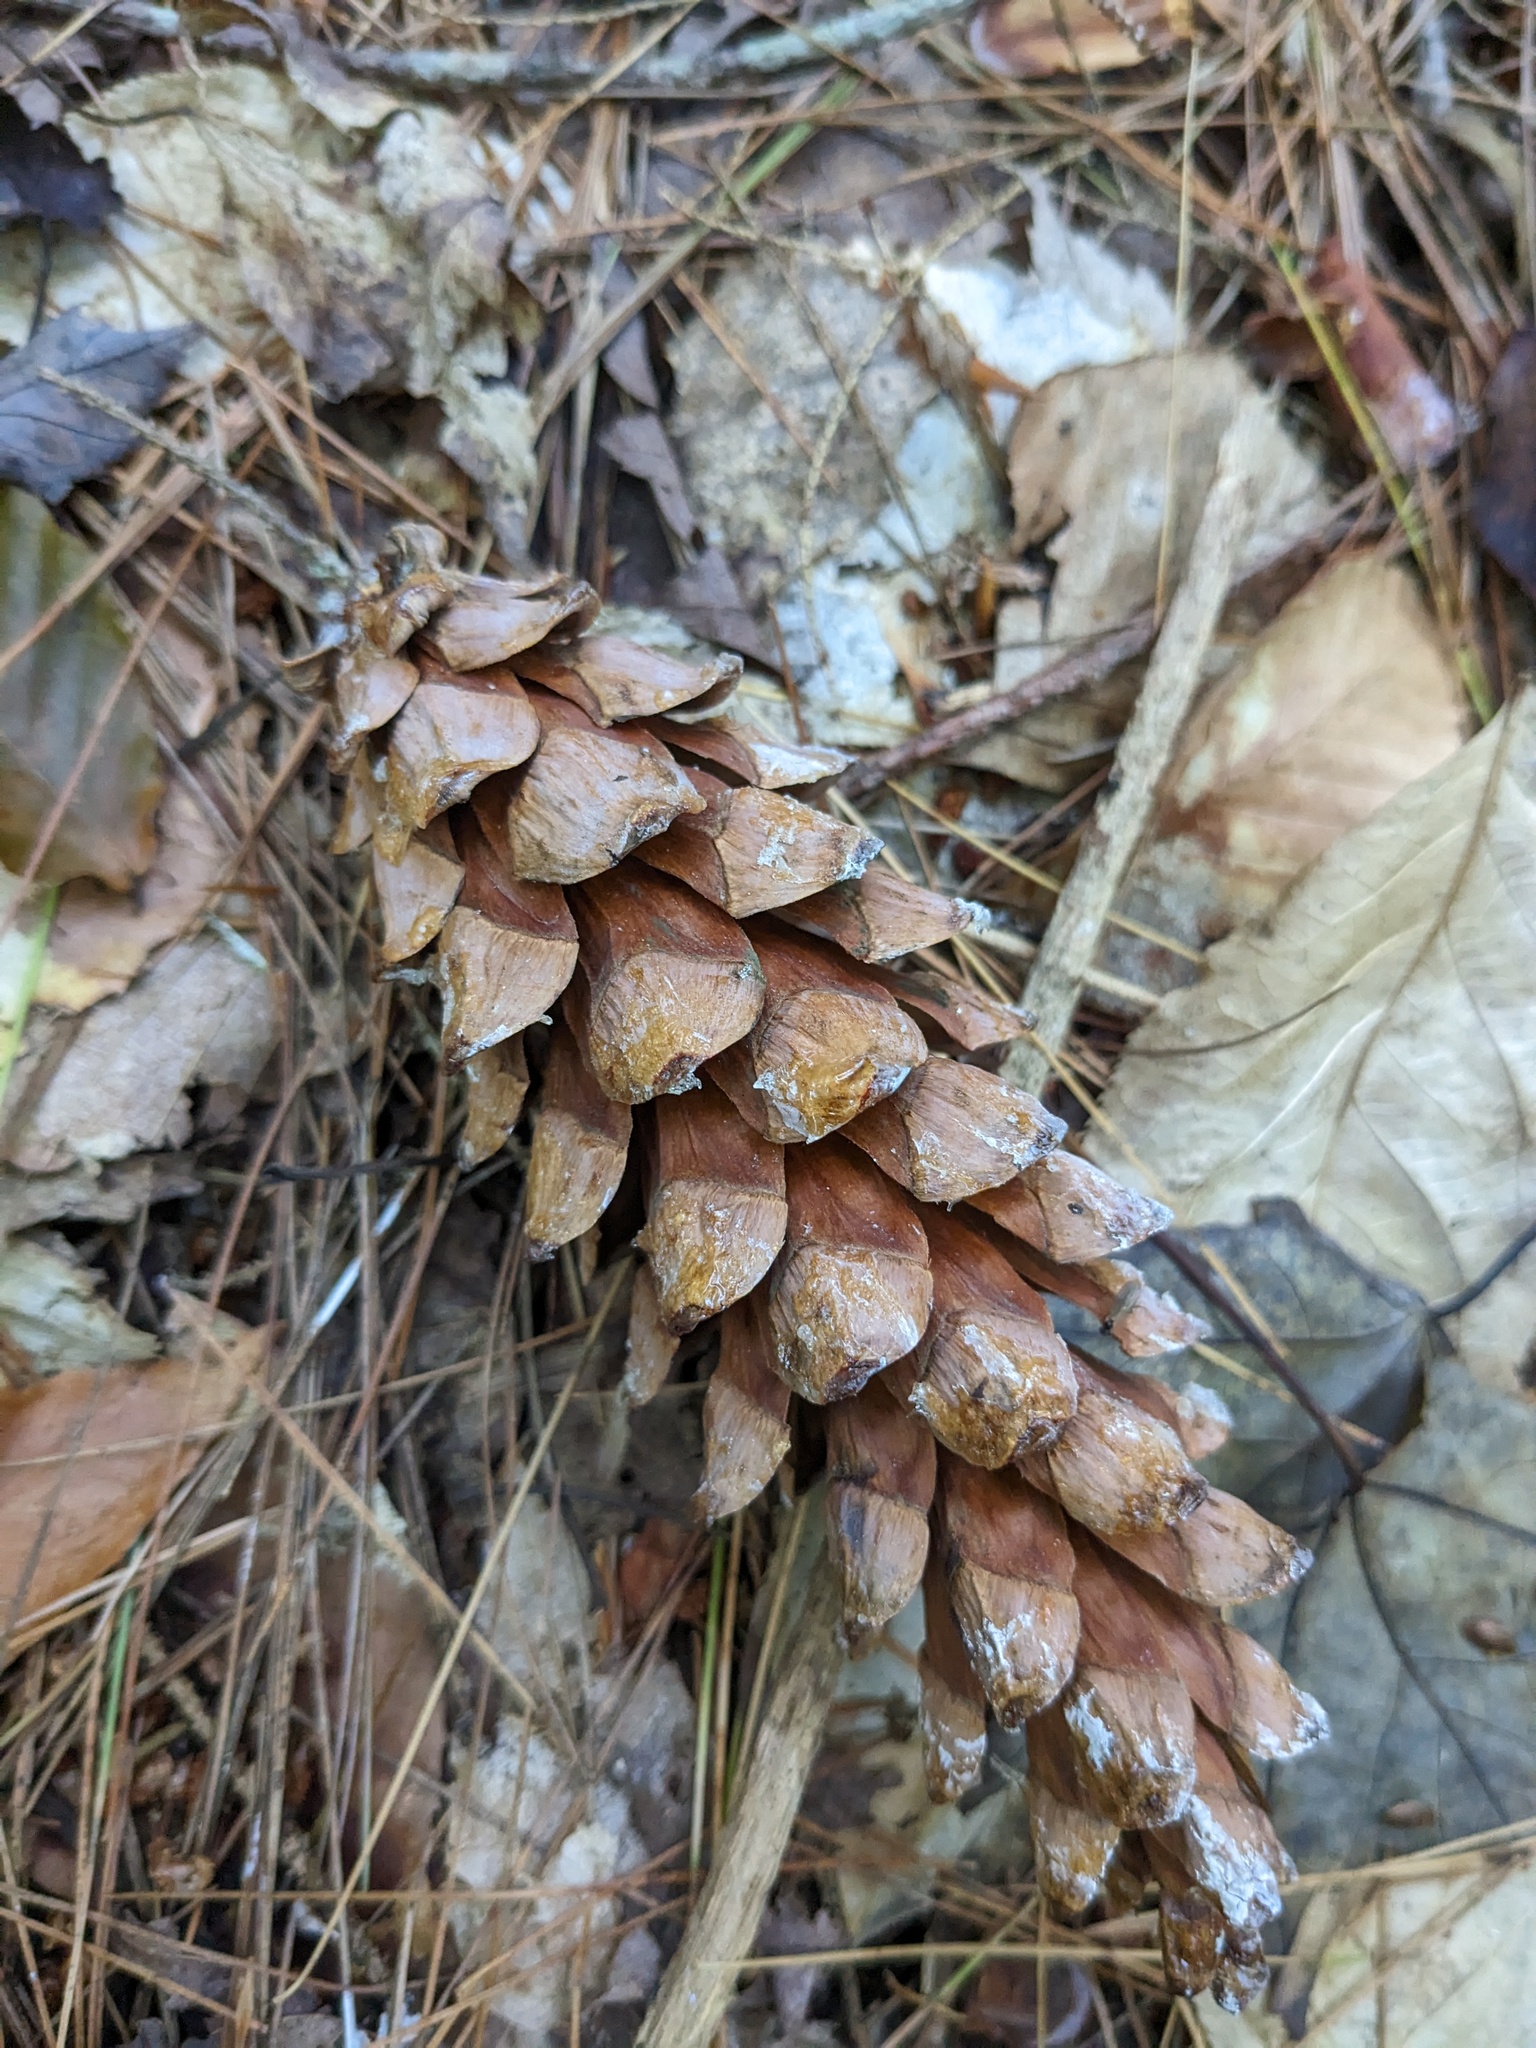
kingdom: Plantae
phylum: Tracheophyta
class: Pinopsida
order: Pinales
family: Pinaceae
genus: Pinus
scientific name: Pinus strobus
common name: Weymouth pine
